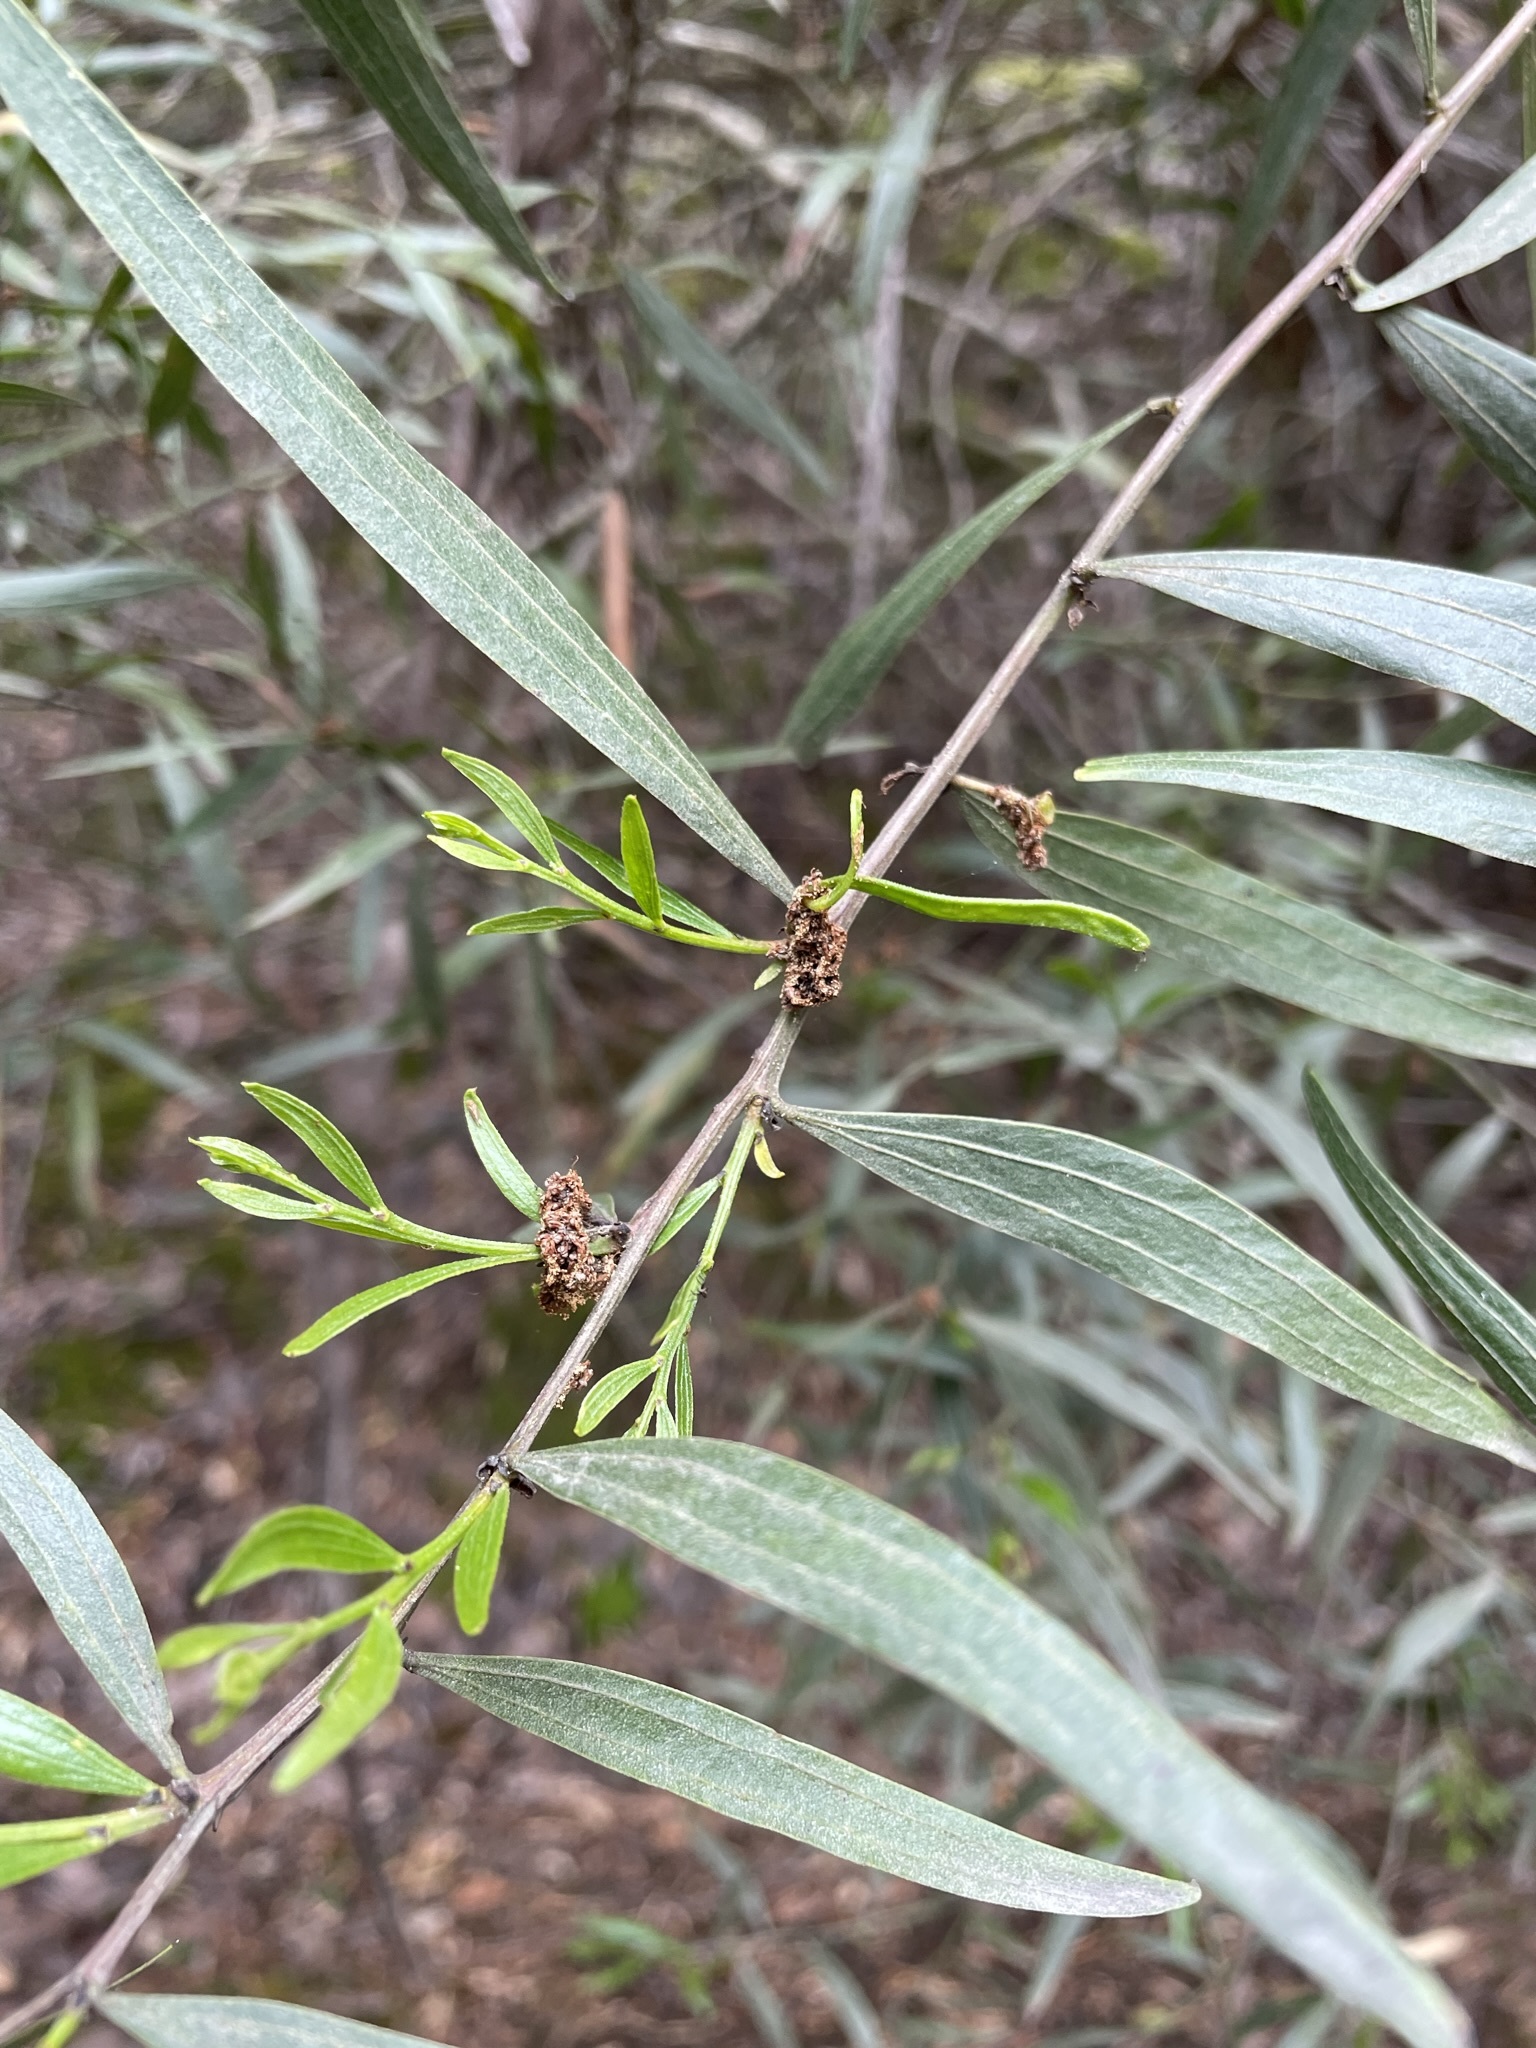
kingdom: Plantae
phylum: Tracheophyta
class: Magnoliopsida
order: Fabales
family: Fabaceae
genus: Acacia
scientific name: Acacia leprosa
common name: Cinnamon wattle
